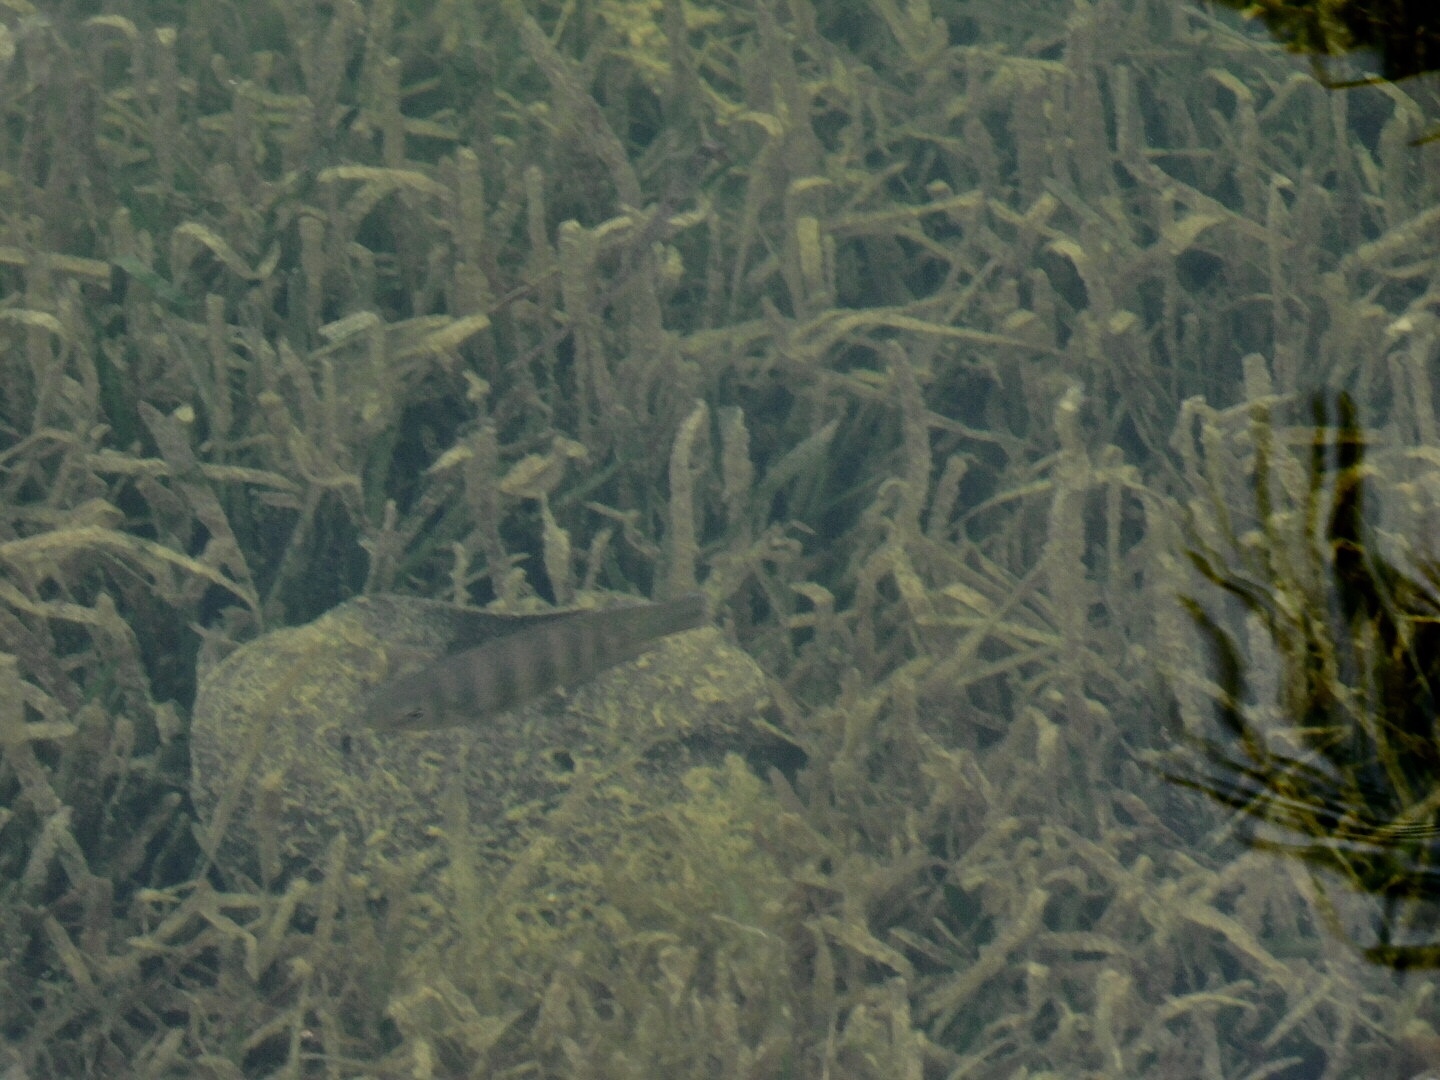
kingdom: Animalia
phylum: Chordata
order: Perciformes
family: Cichlidae
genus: Pelmatolapia
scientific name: Pelmatolapia mariae
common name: Spotted tilapia
